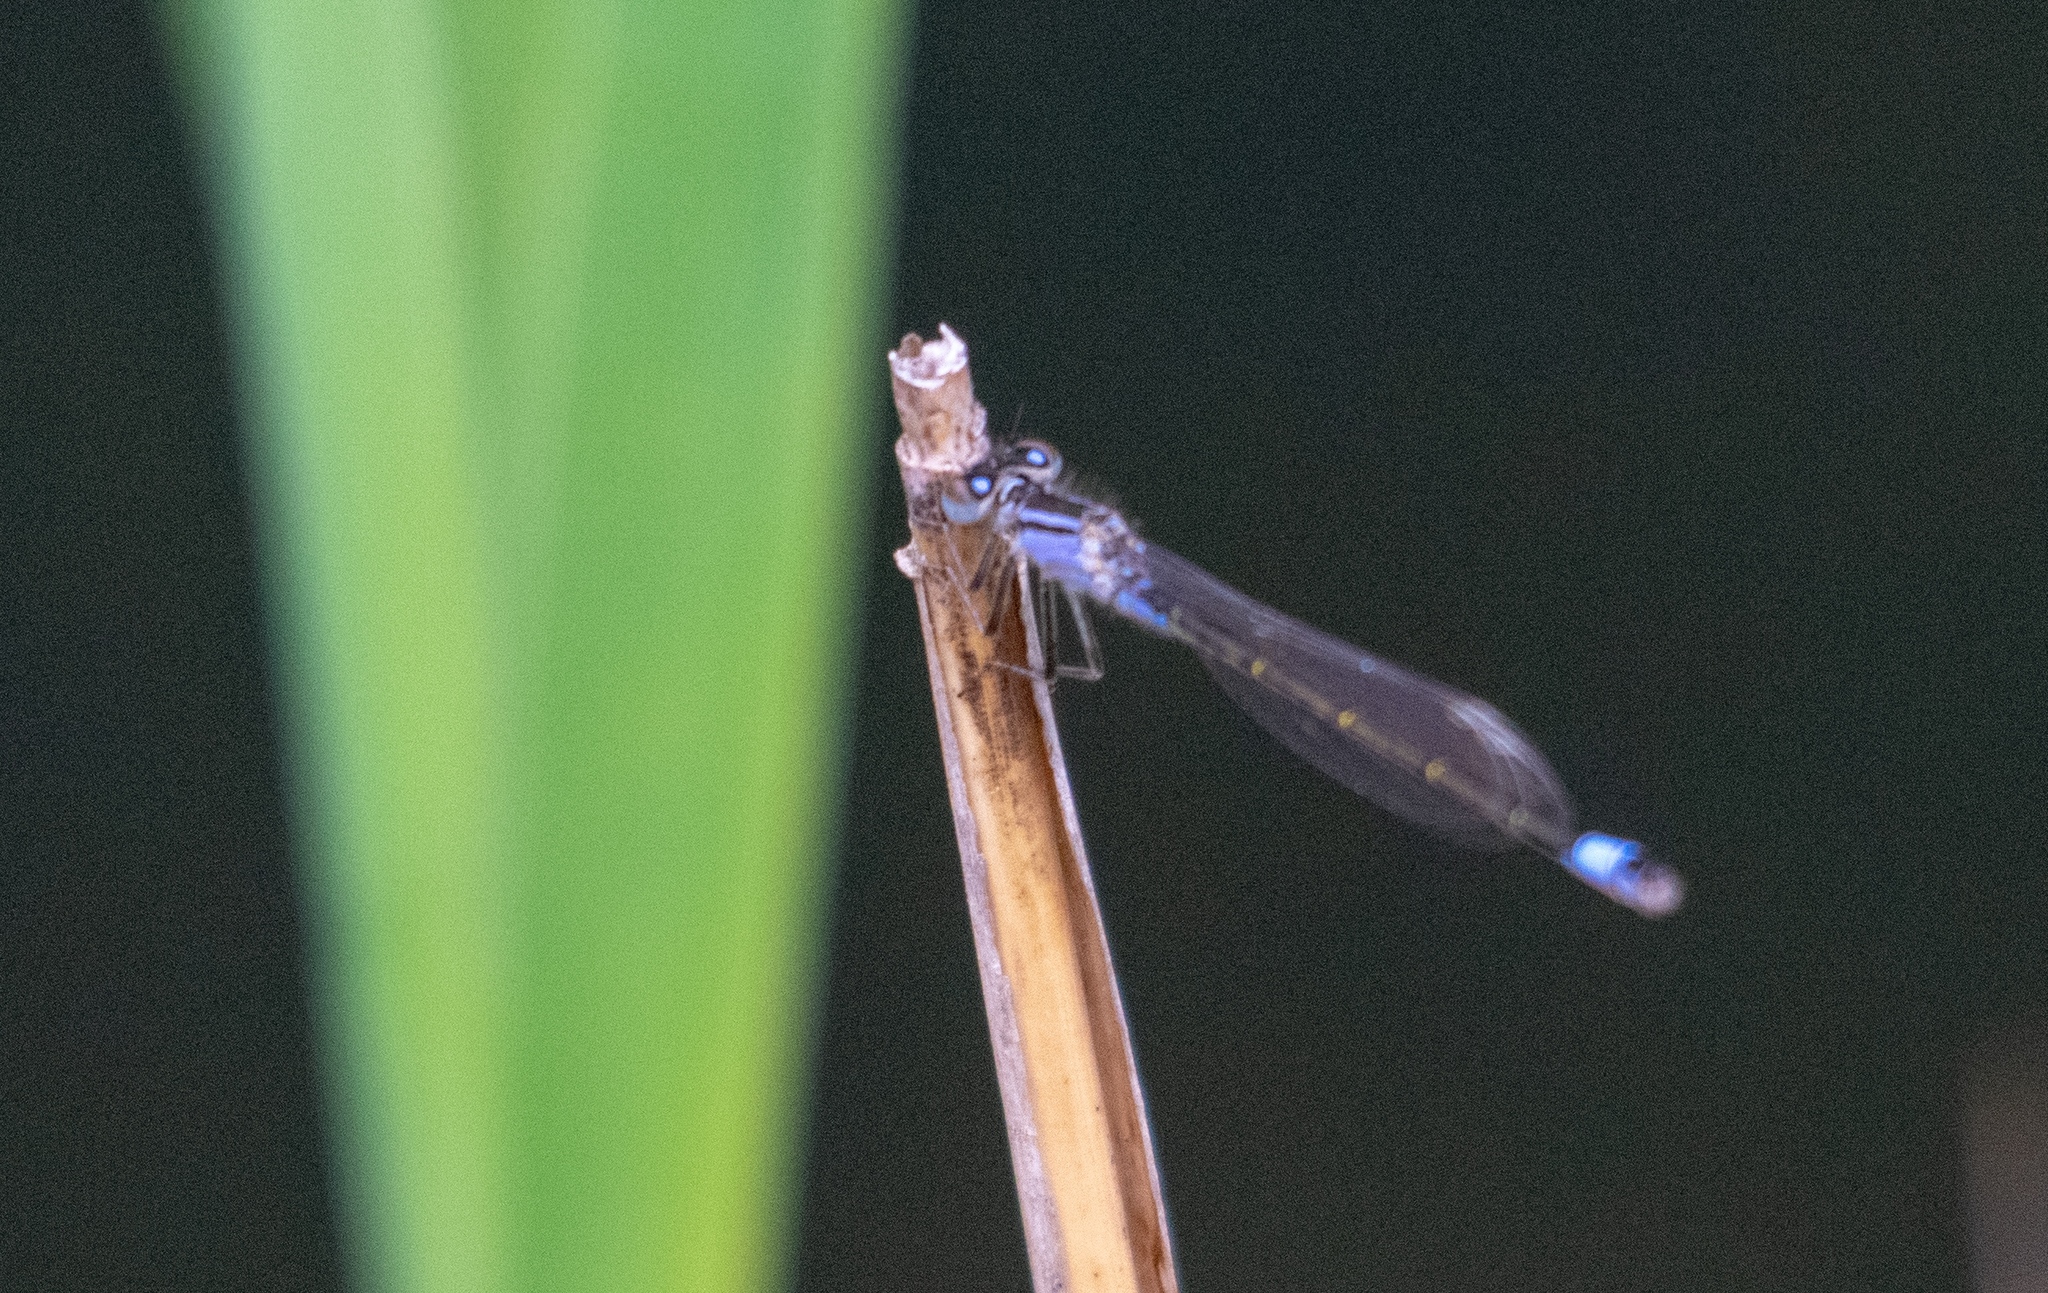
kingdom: Animalia
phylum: Arthropoda
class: Insecta
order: Odonata
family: Coenagrionidae
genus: Ischnura
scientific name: Ischnura elegans
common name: Blue-tailed damselfly
